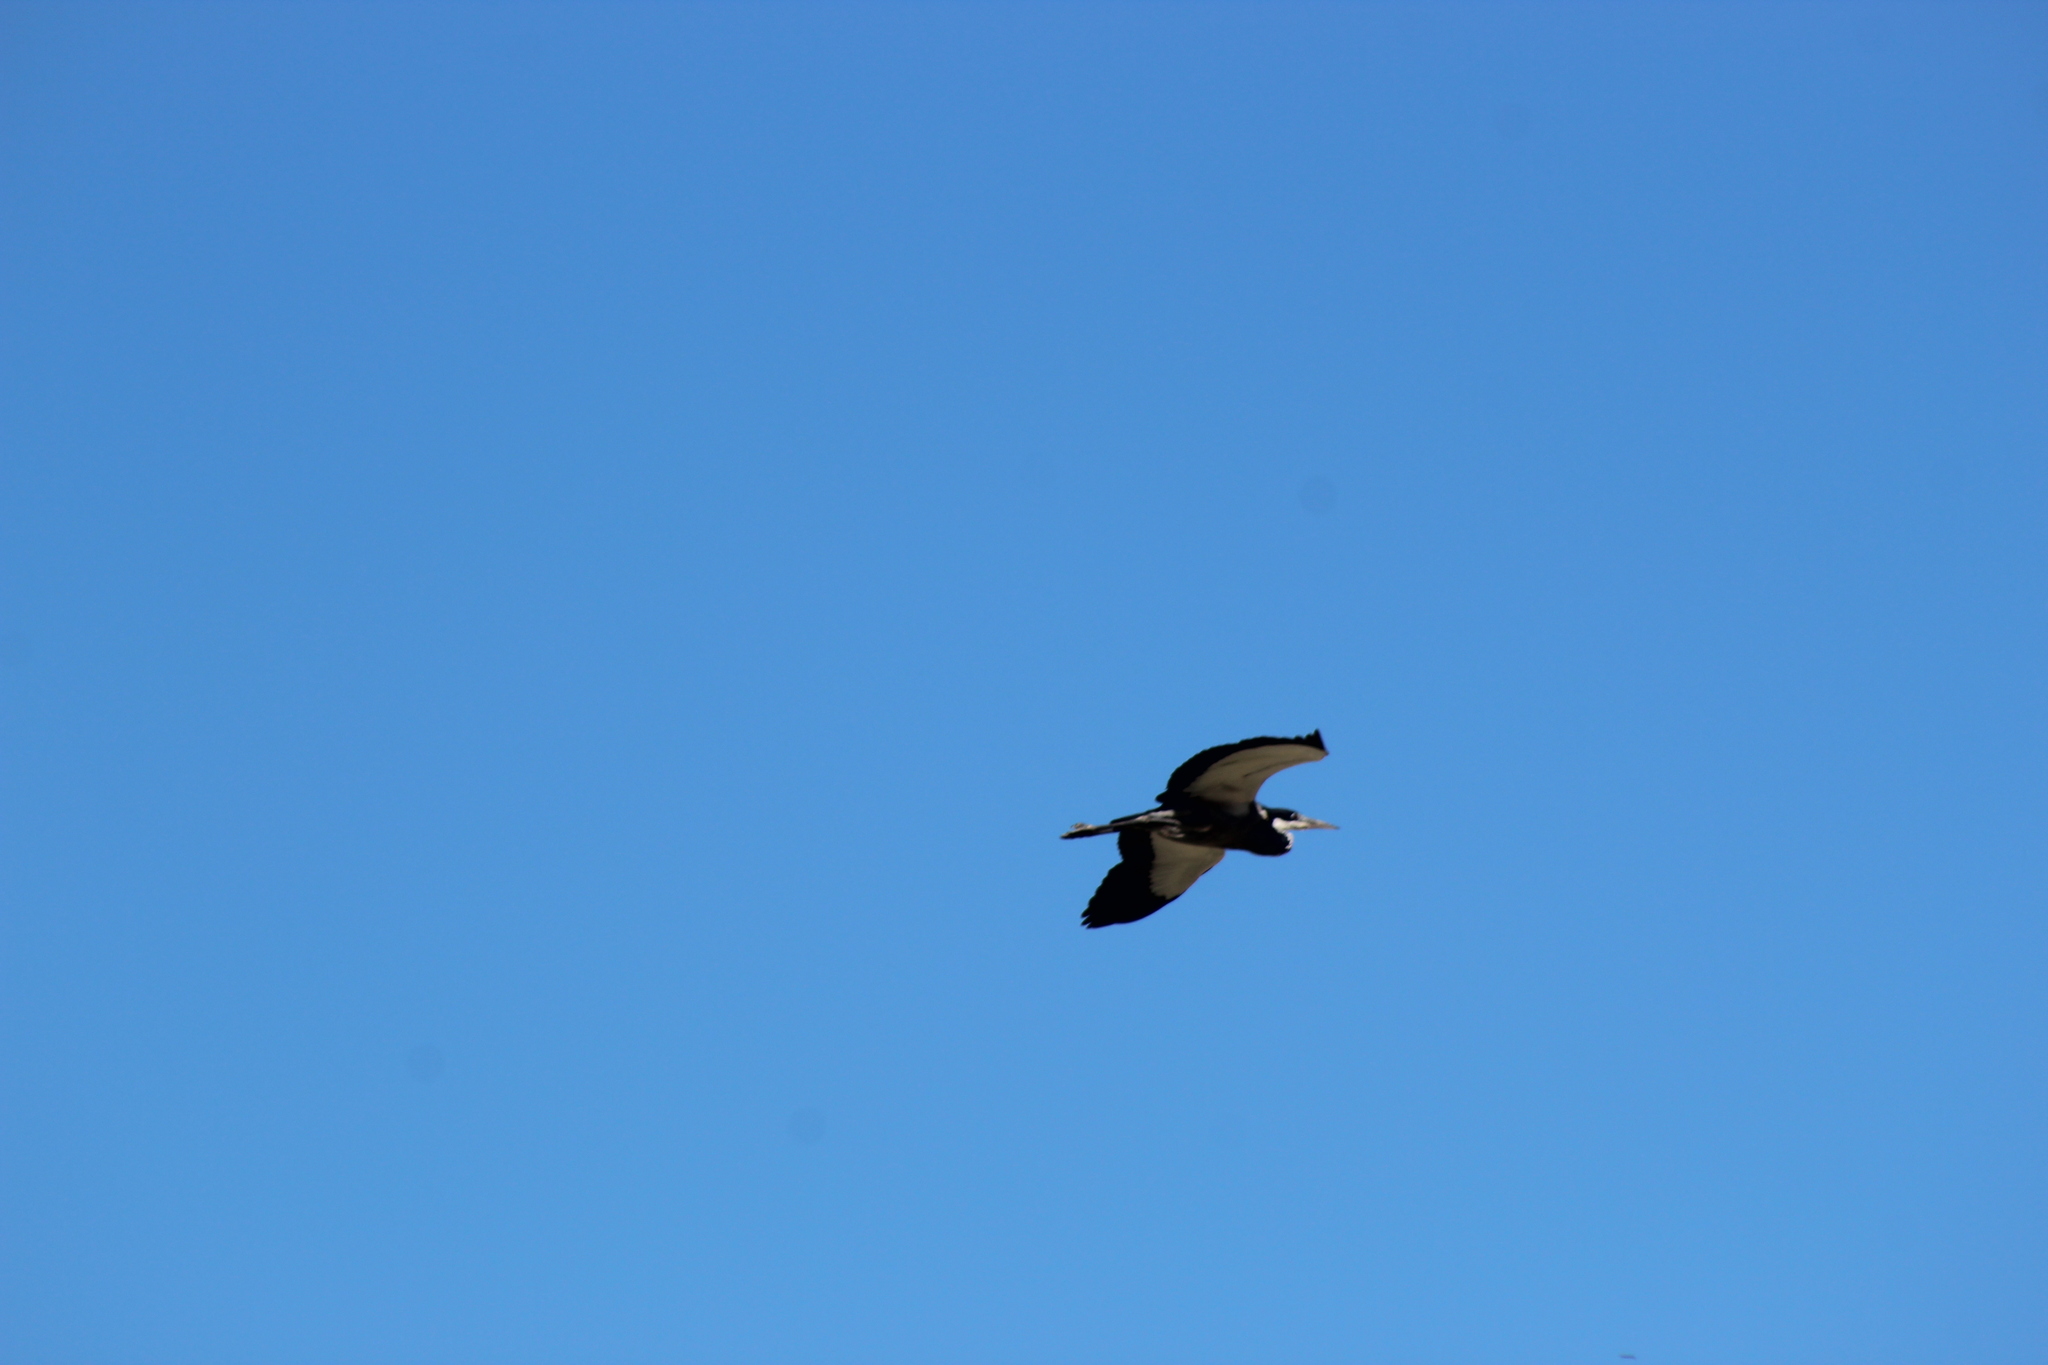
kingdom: Animalia
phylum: Chordata
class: Aves
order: Pelecaniformes
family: Ardeidae
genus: Ardea
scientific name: Ardea melanocephala
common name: Black-headed heron
